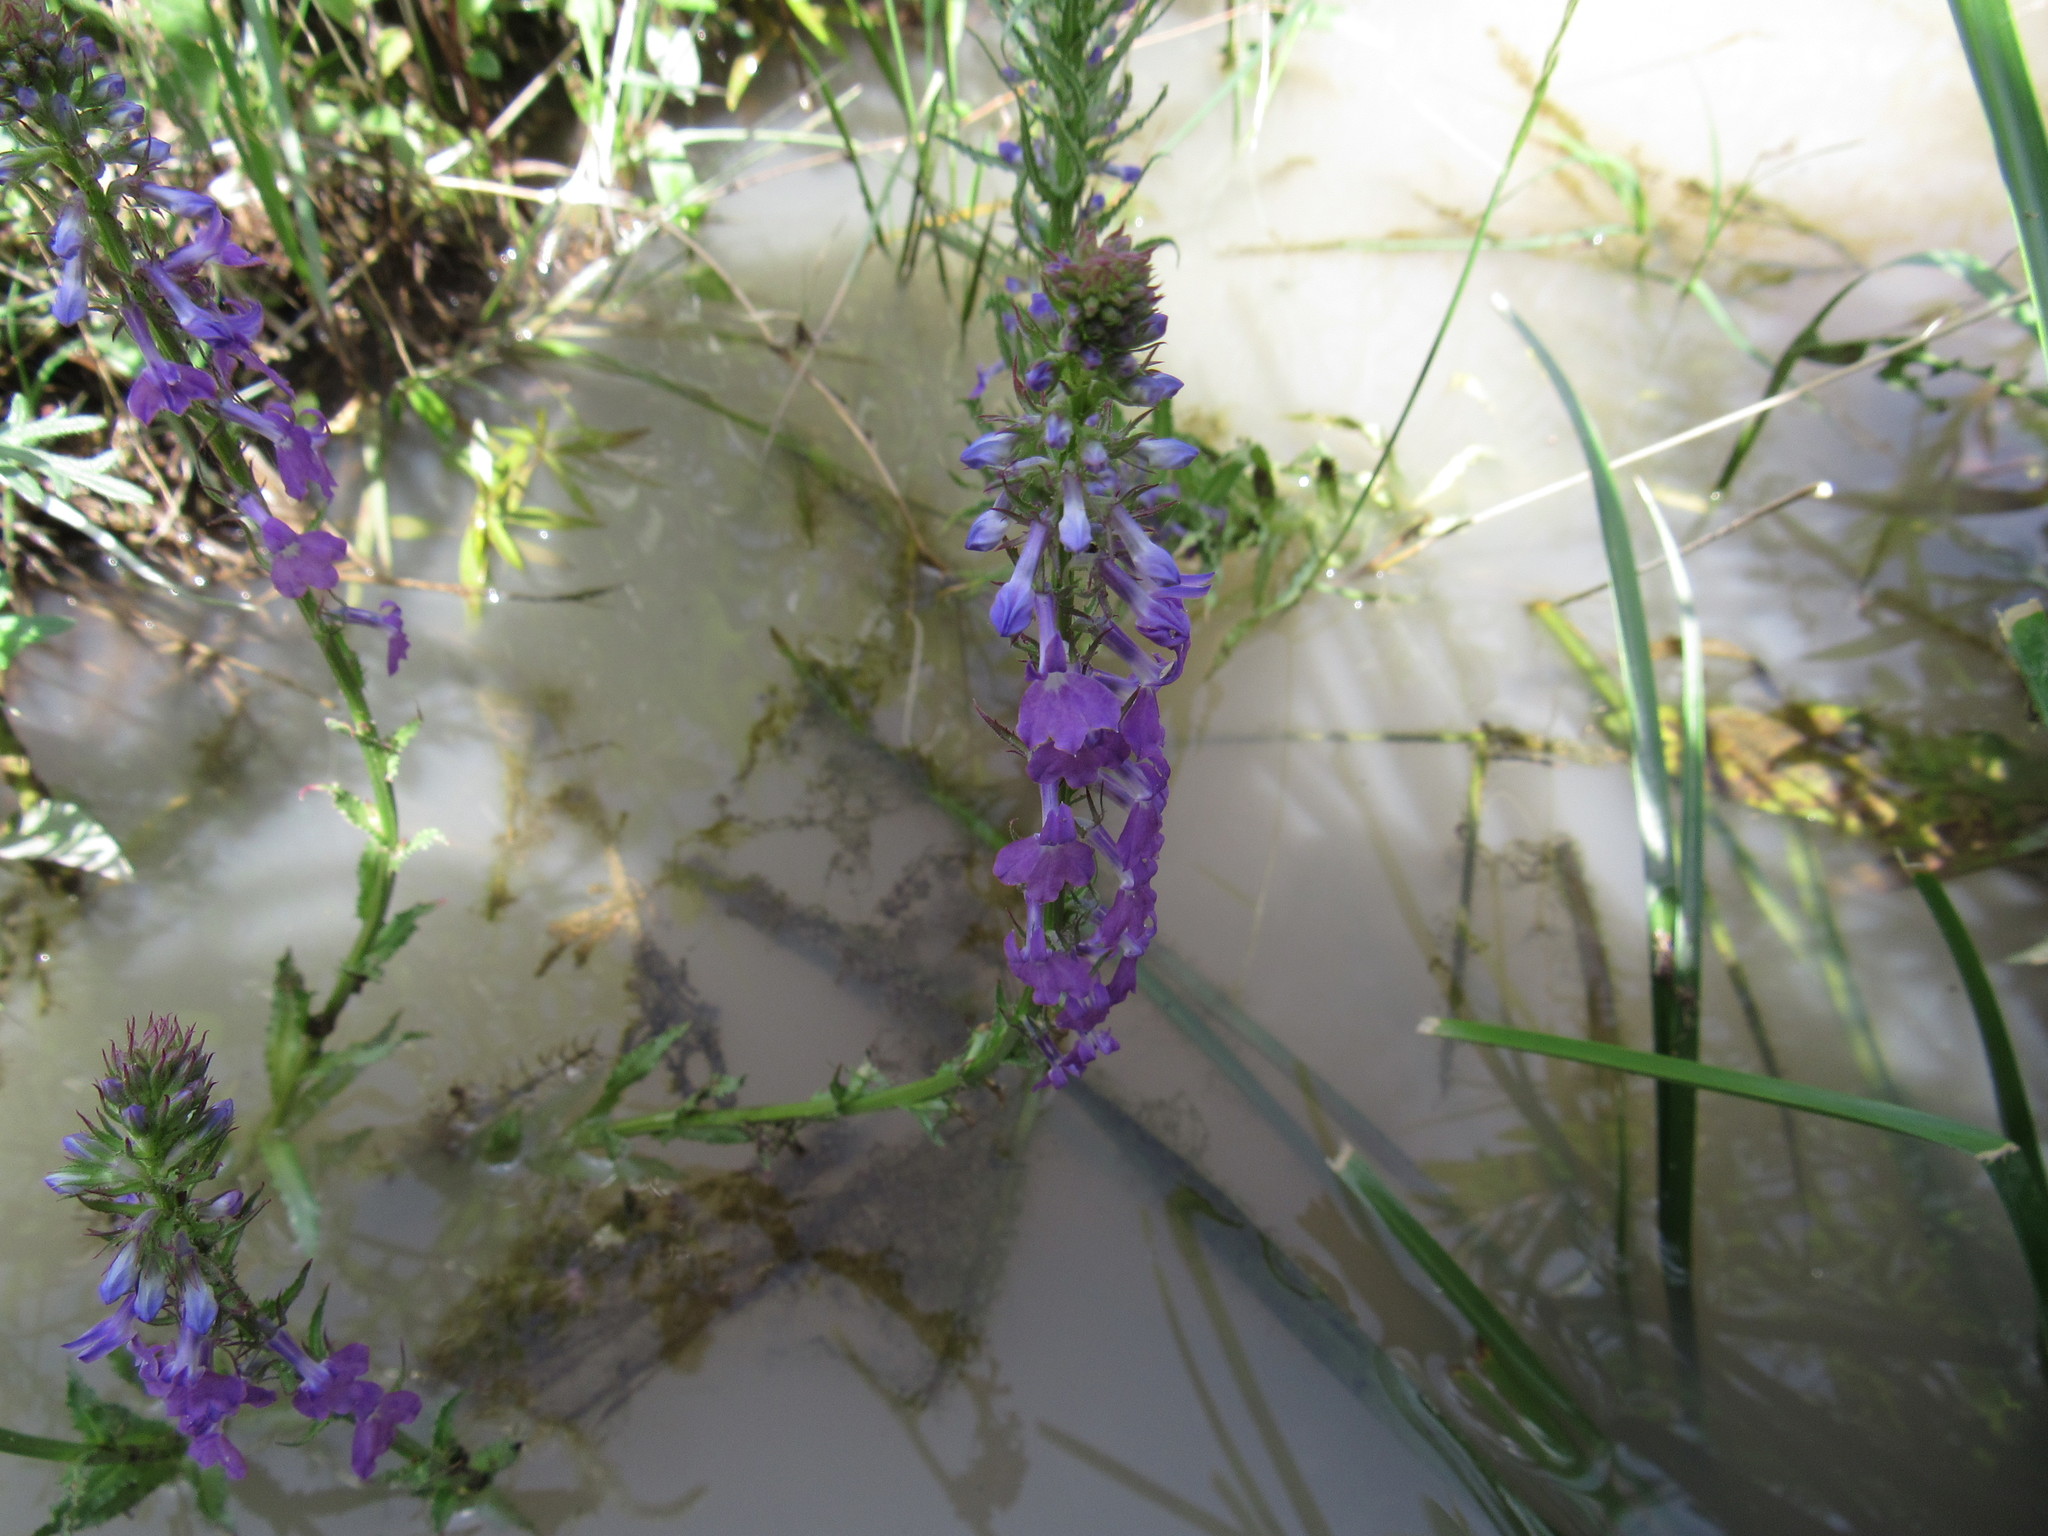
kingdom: Plantae
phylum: Tracheophyta
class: Magnoliopsida
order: Asterales
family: Campanulaceae
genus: Lobelia
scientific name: Lobelia fenestralis
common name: Leafy lobelia
